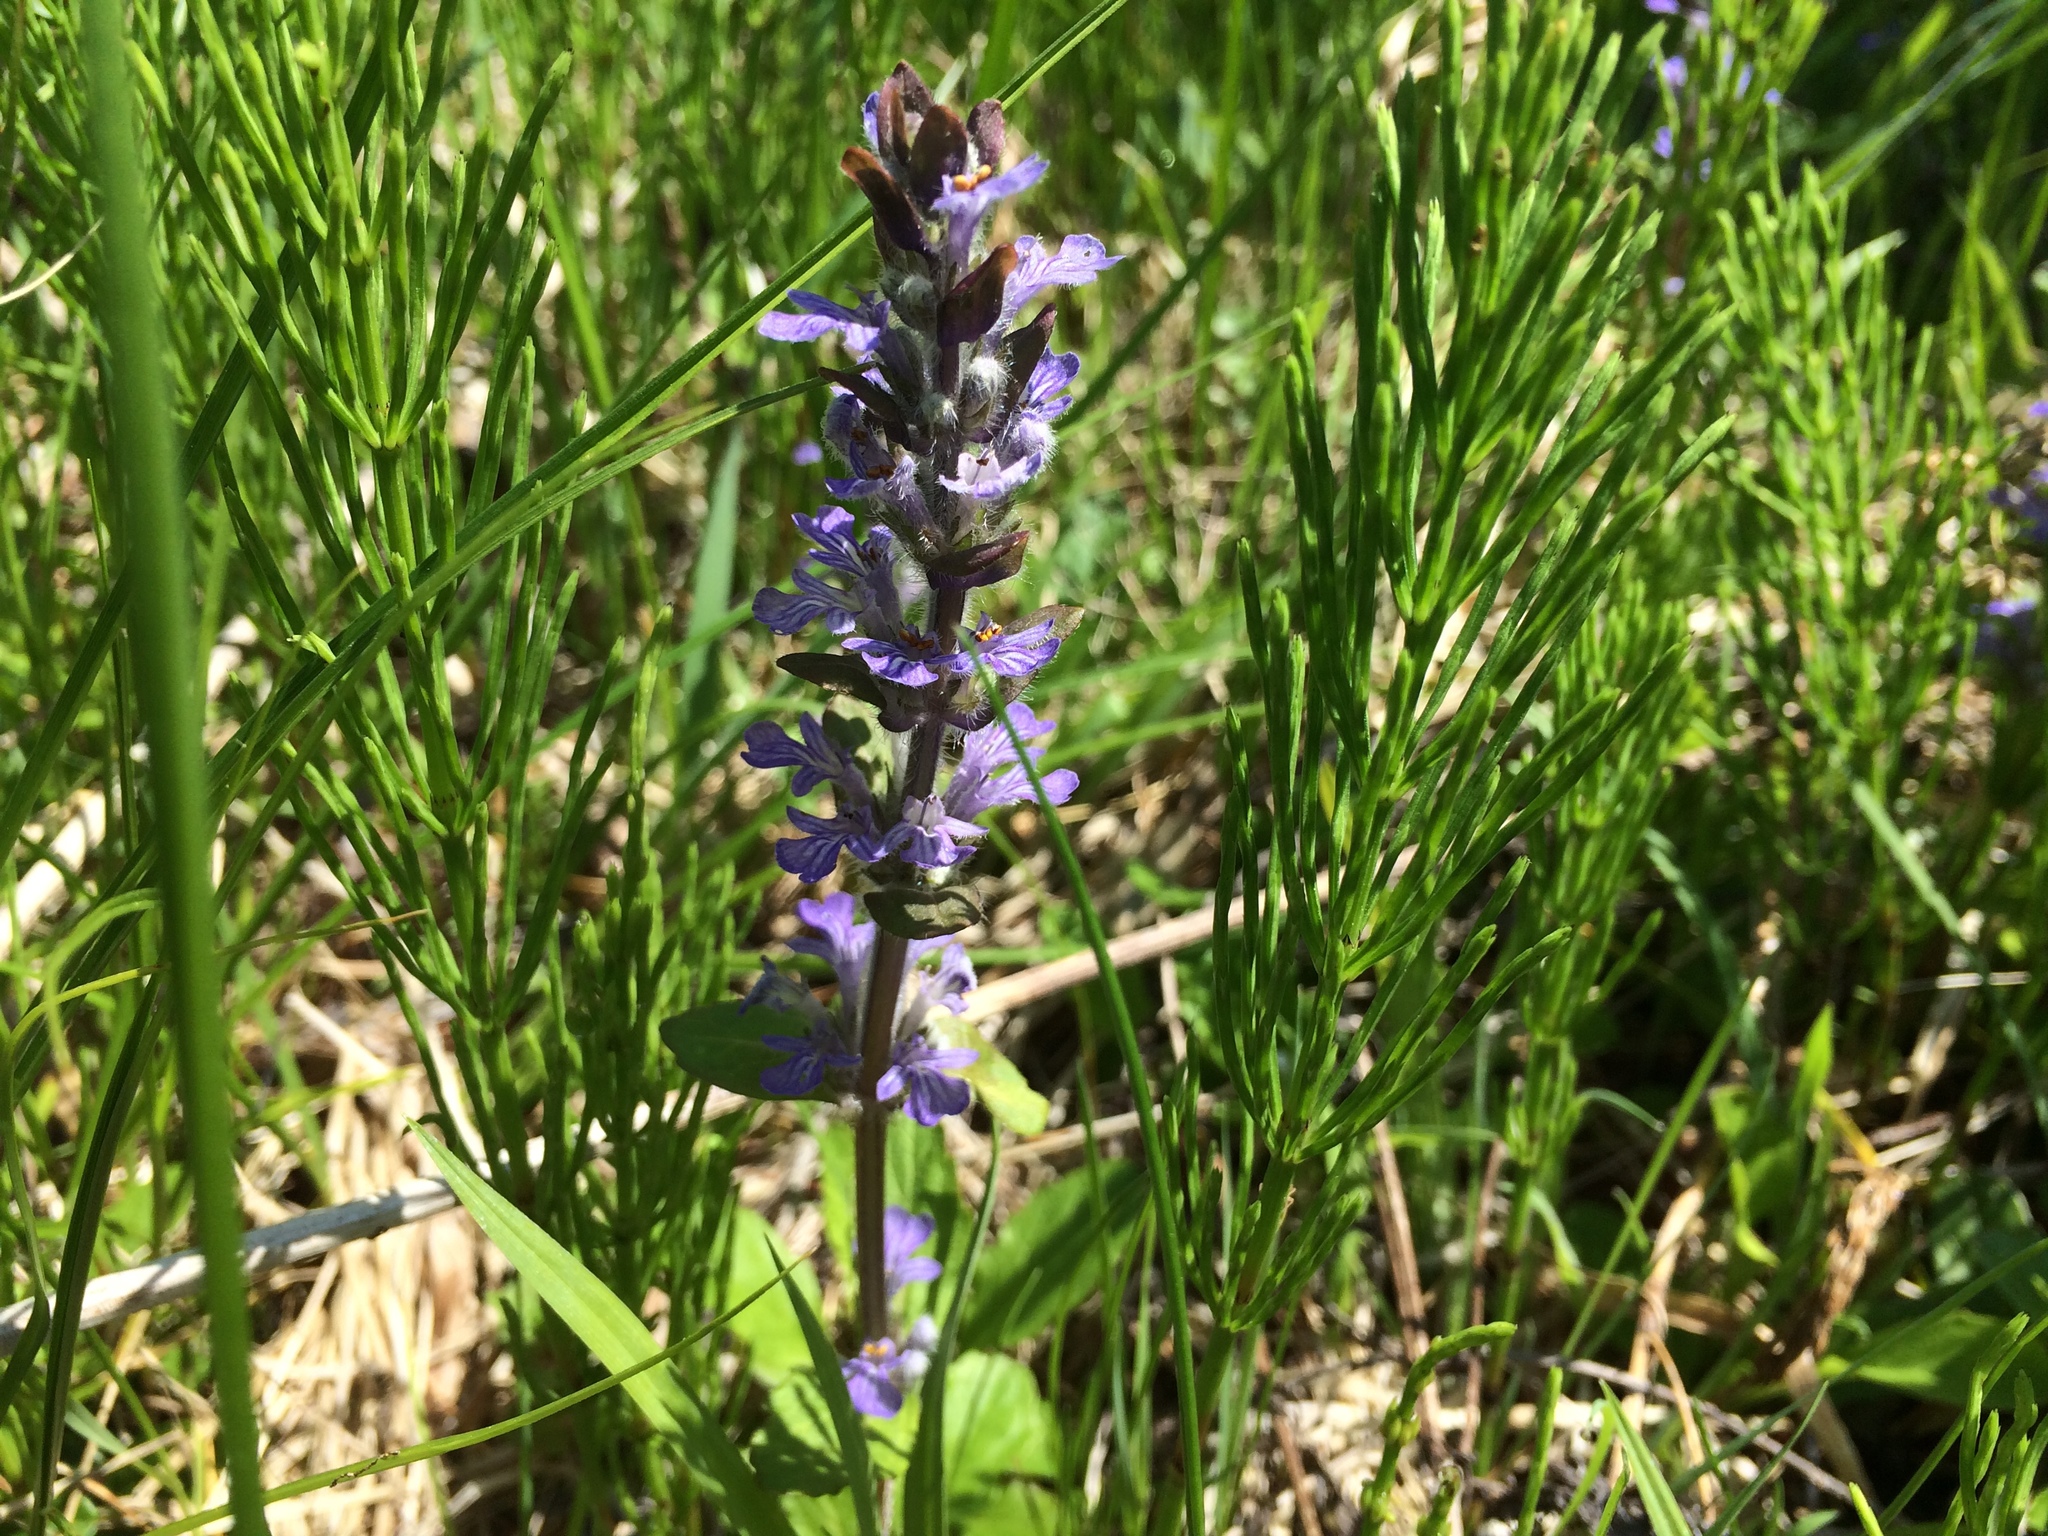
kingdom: Plantae
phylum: Tracheophyta
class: Magnoliopsida
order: Lamiales
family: Lamiaceae
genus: Ajuga
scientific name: Ajuga reptans
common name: Bugle
